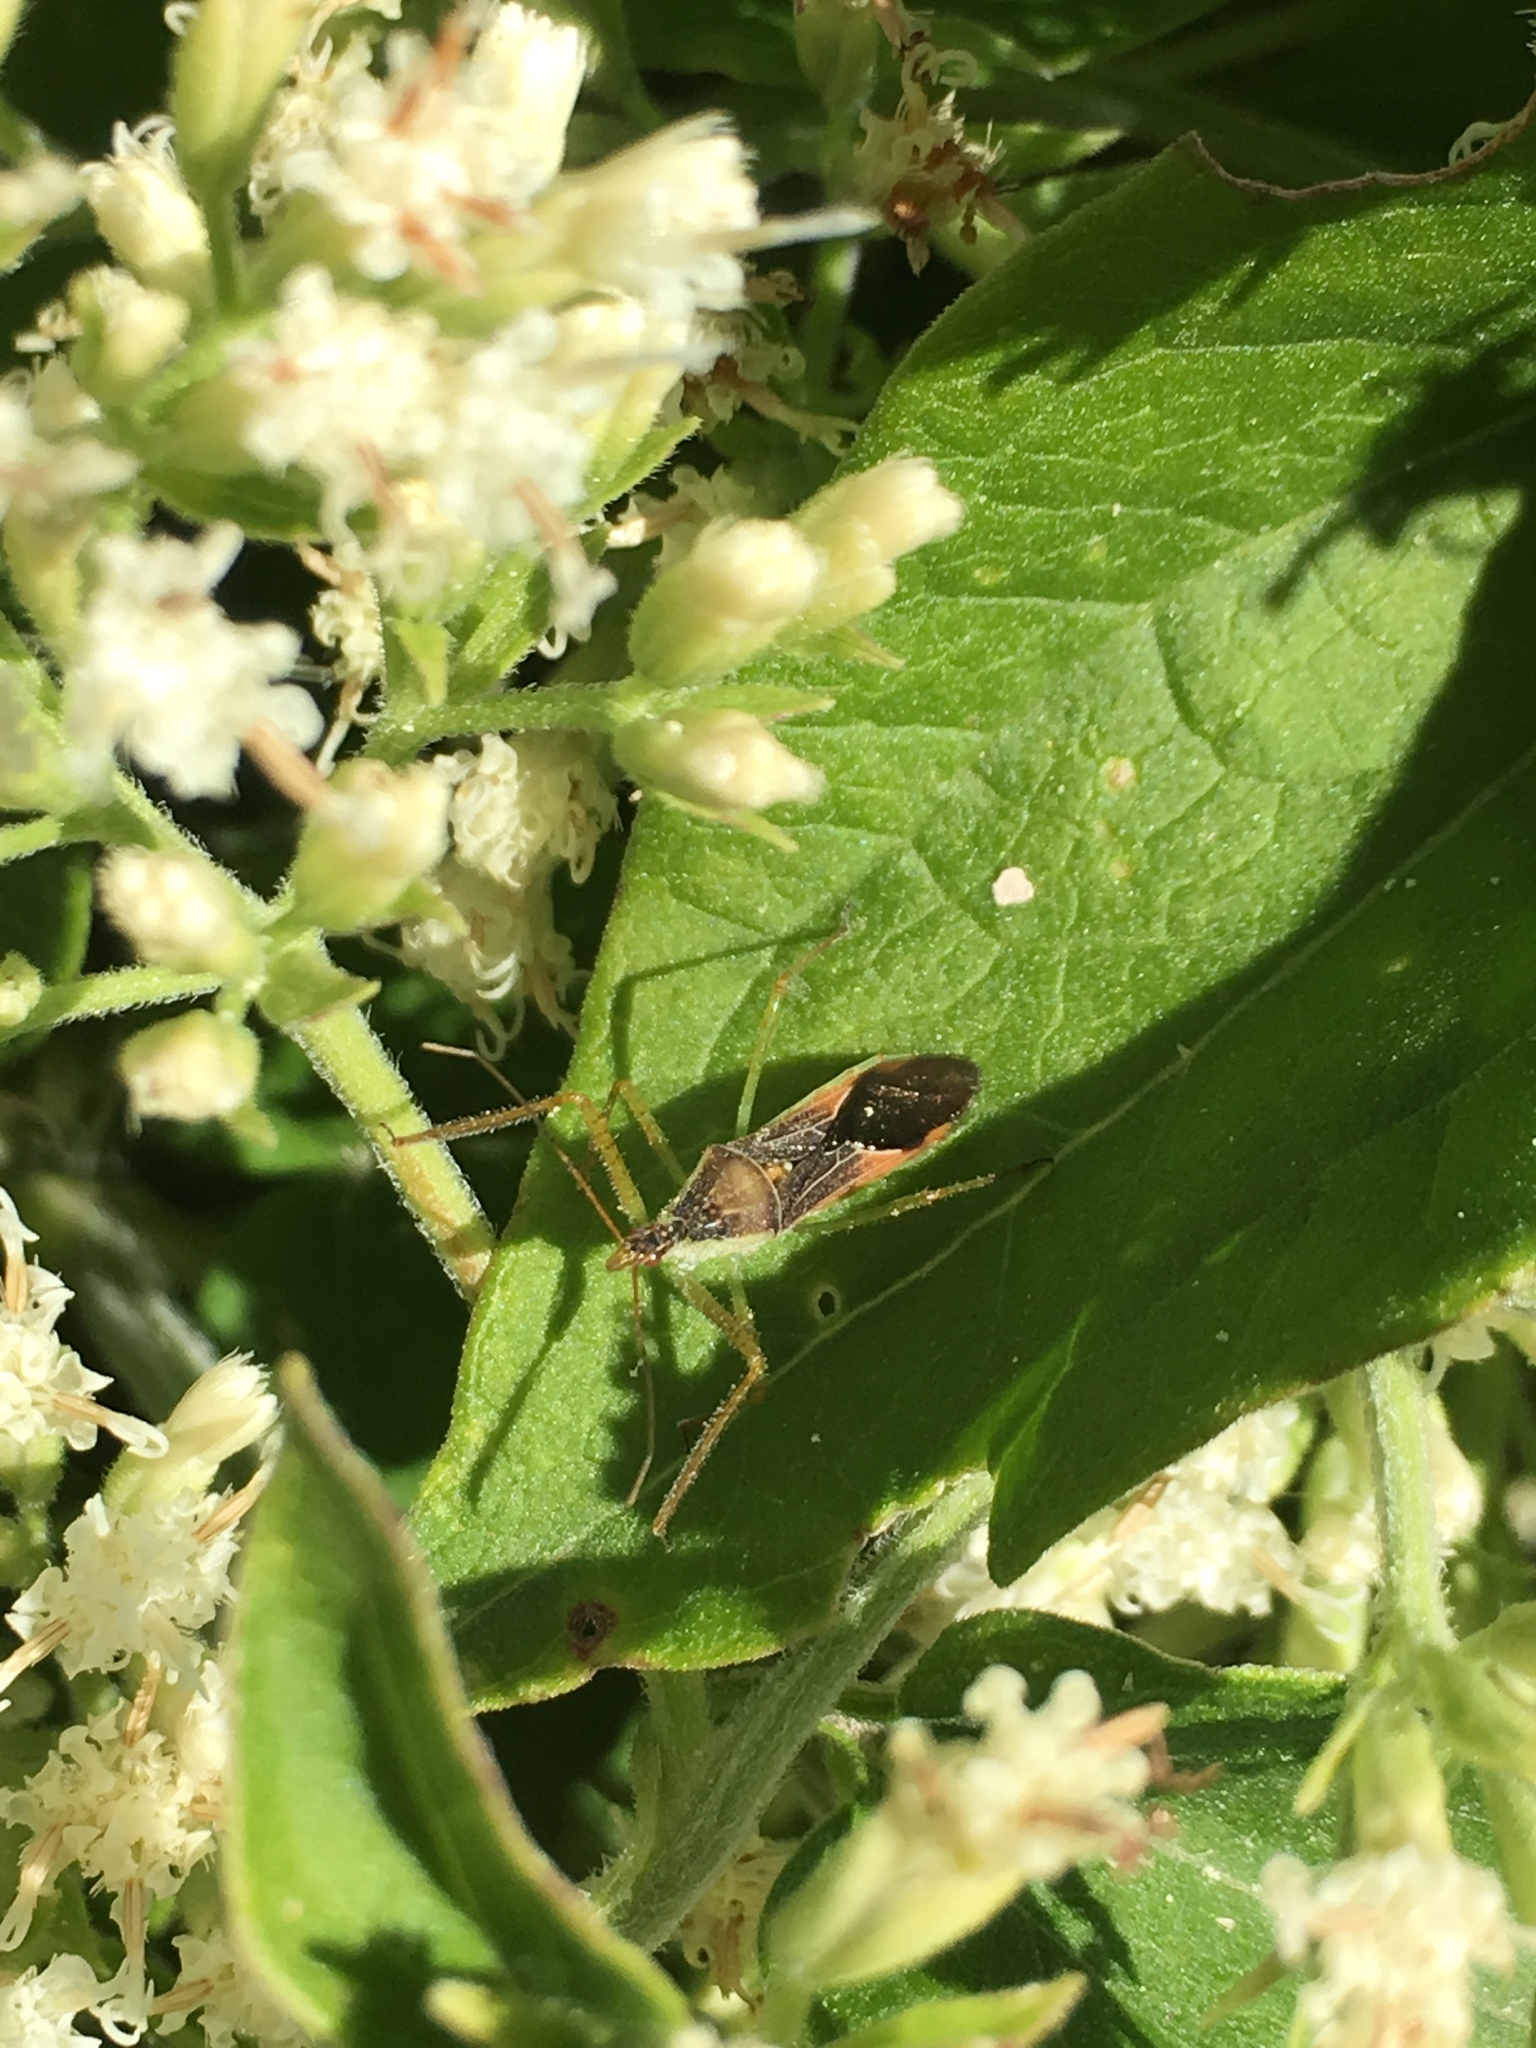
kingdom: Animalia
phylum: Arthropoda
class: Insecta
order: Hemiptera
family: Reduviidae
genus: Zelus
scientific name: Zelus renardii
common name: Assassin bug
